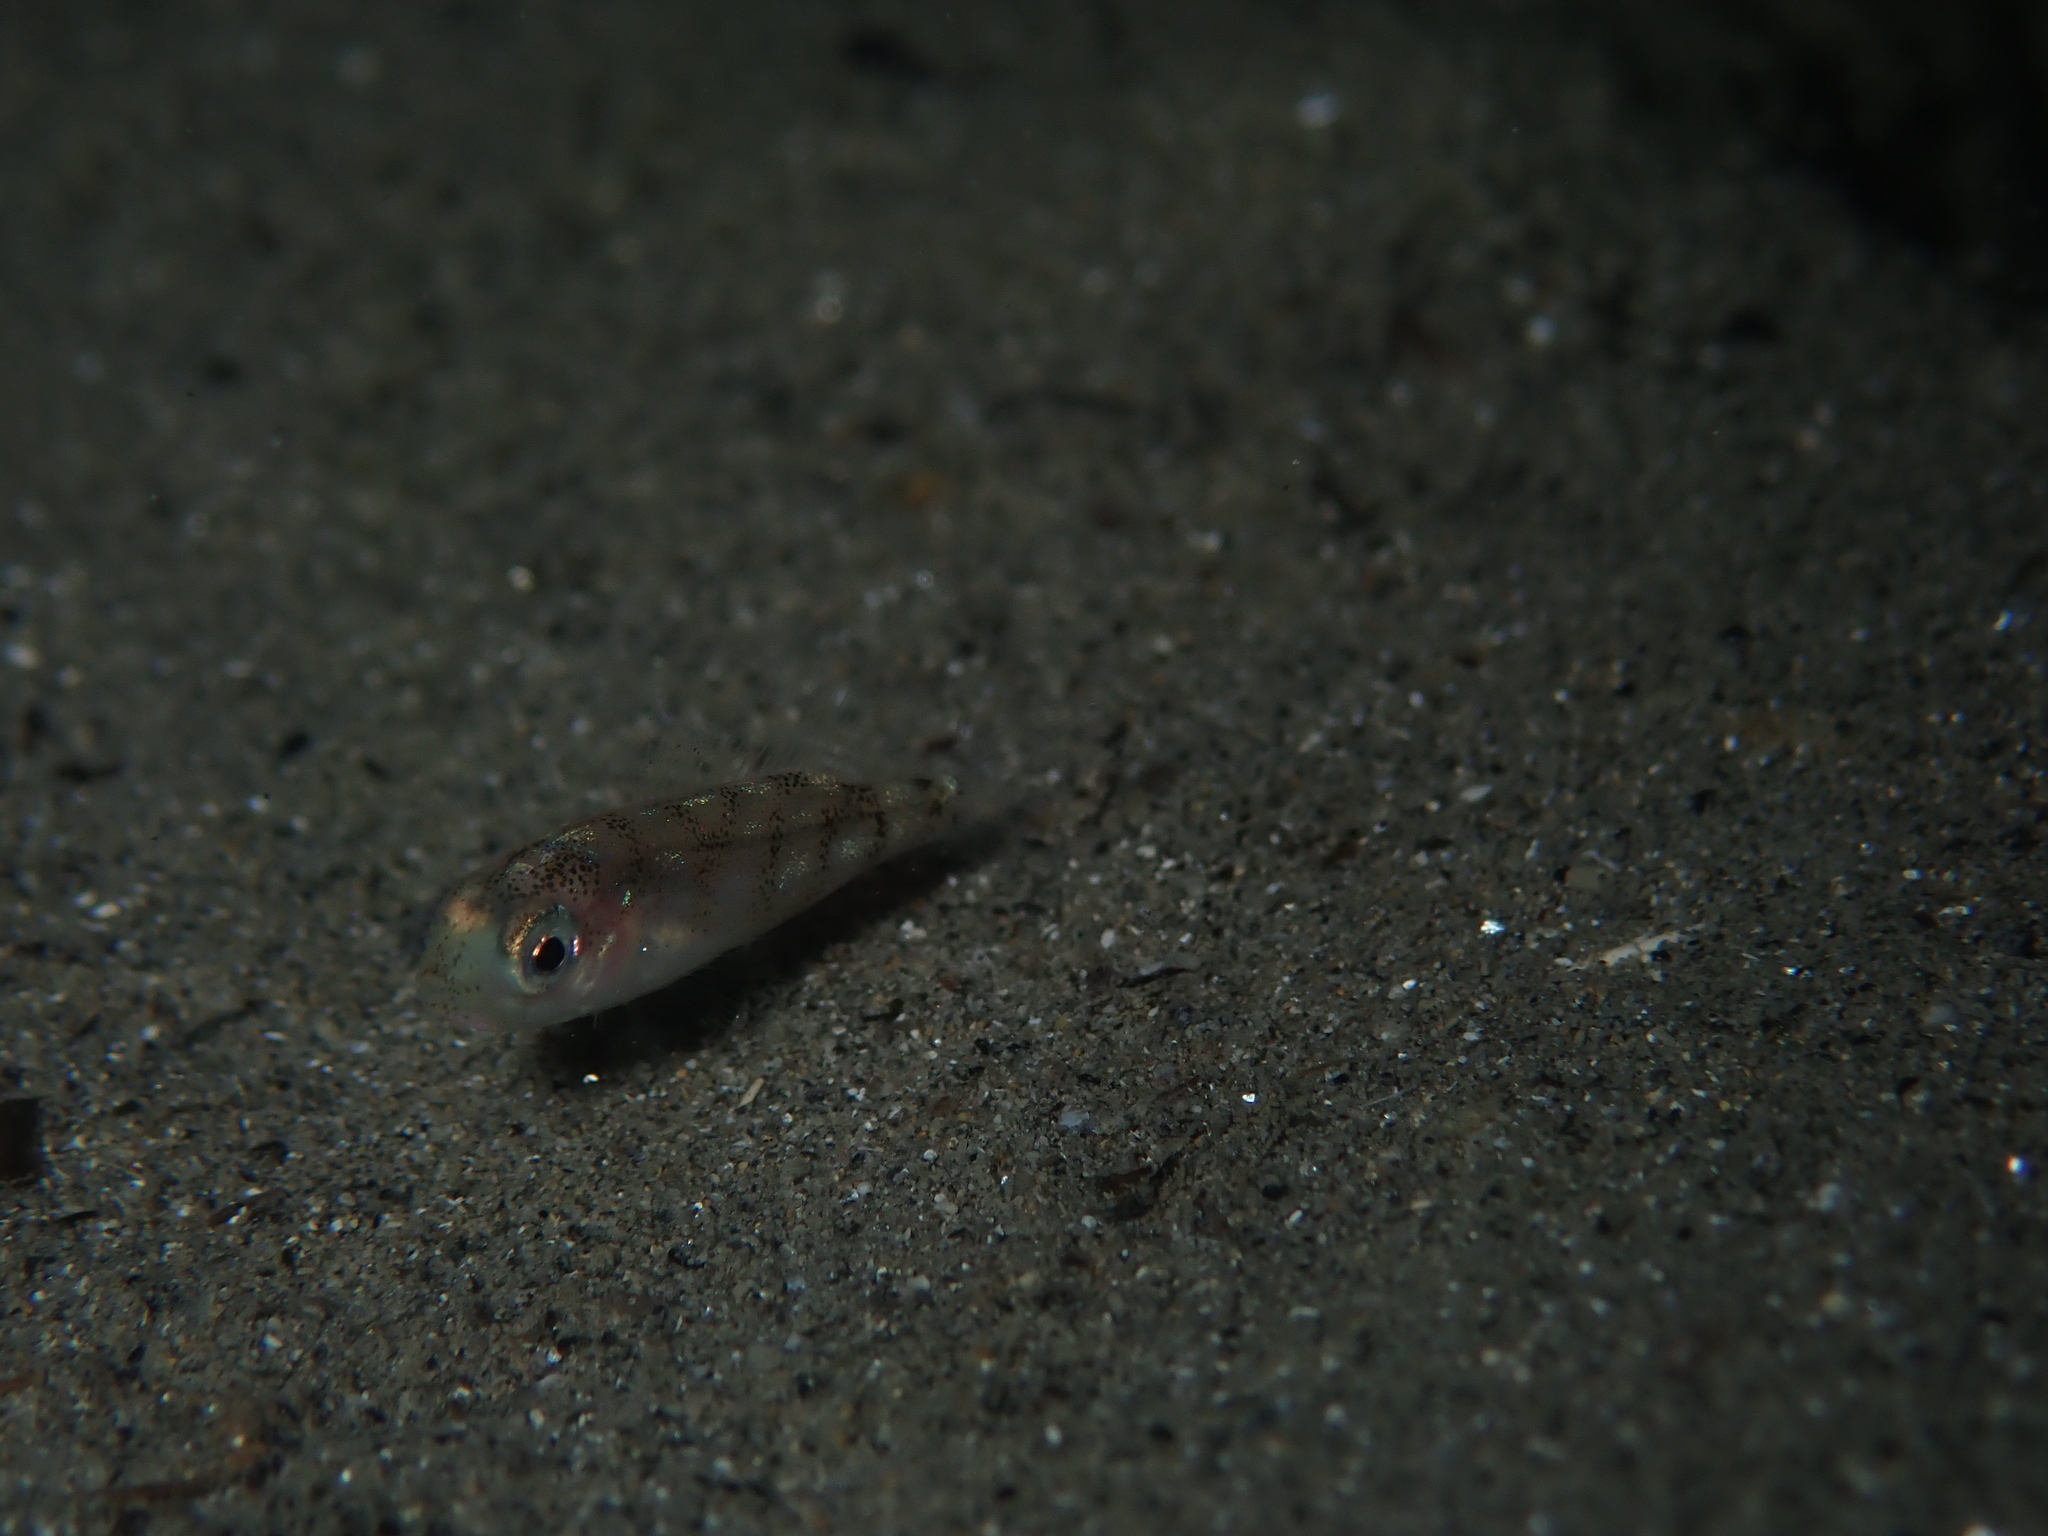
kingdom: Animalia
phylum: Chordata
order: Perciformes
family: Sparidae
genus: Pagellus
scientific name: Pagellus erythrinus
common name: Pandora
